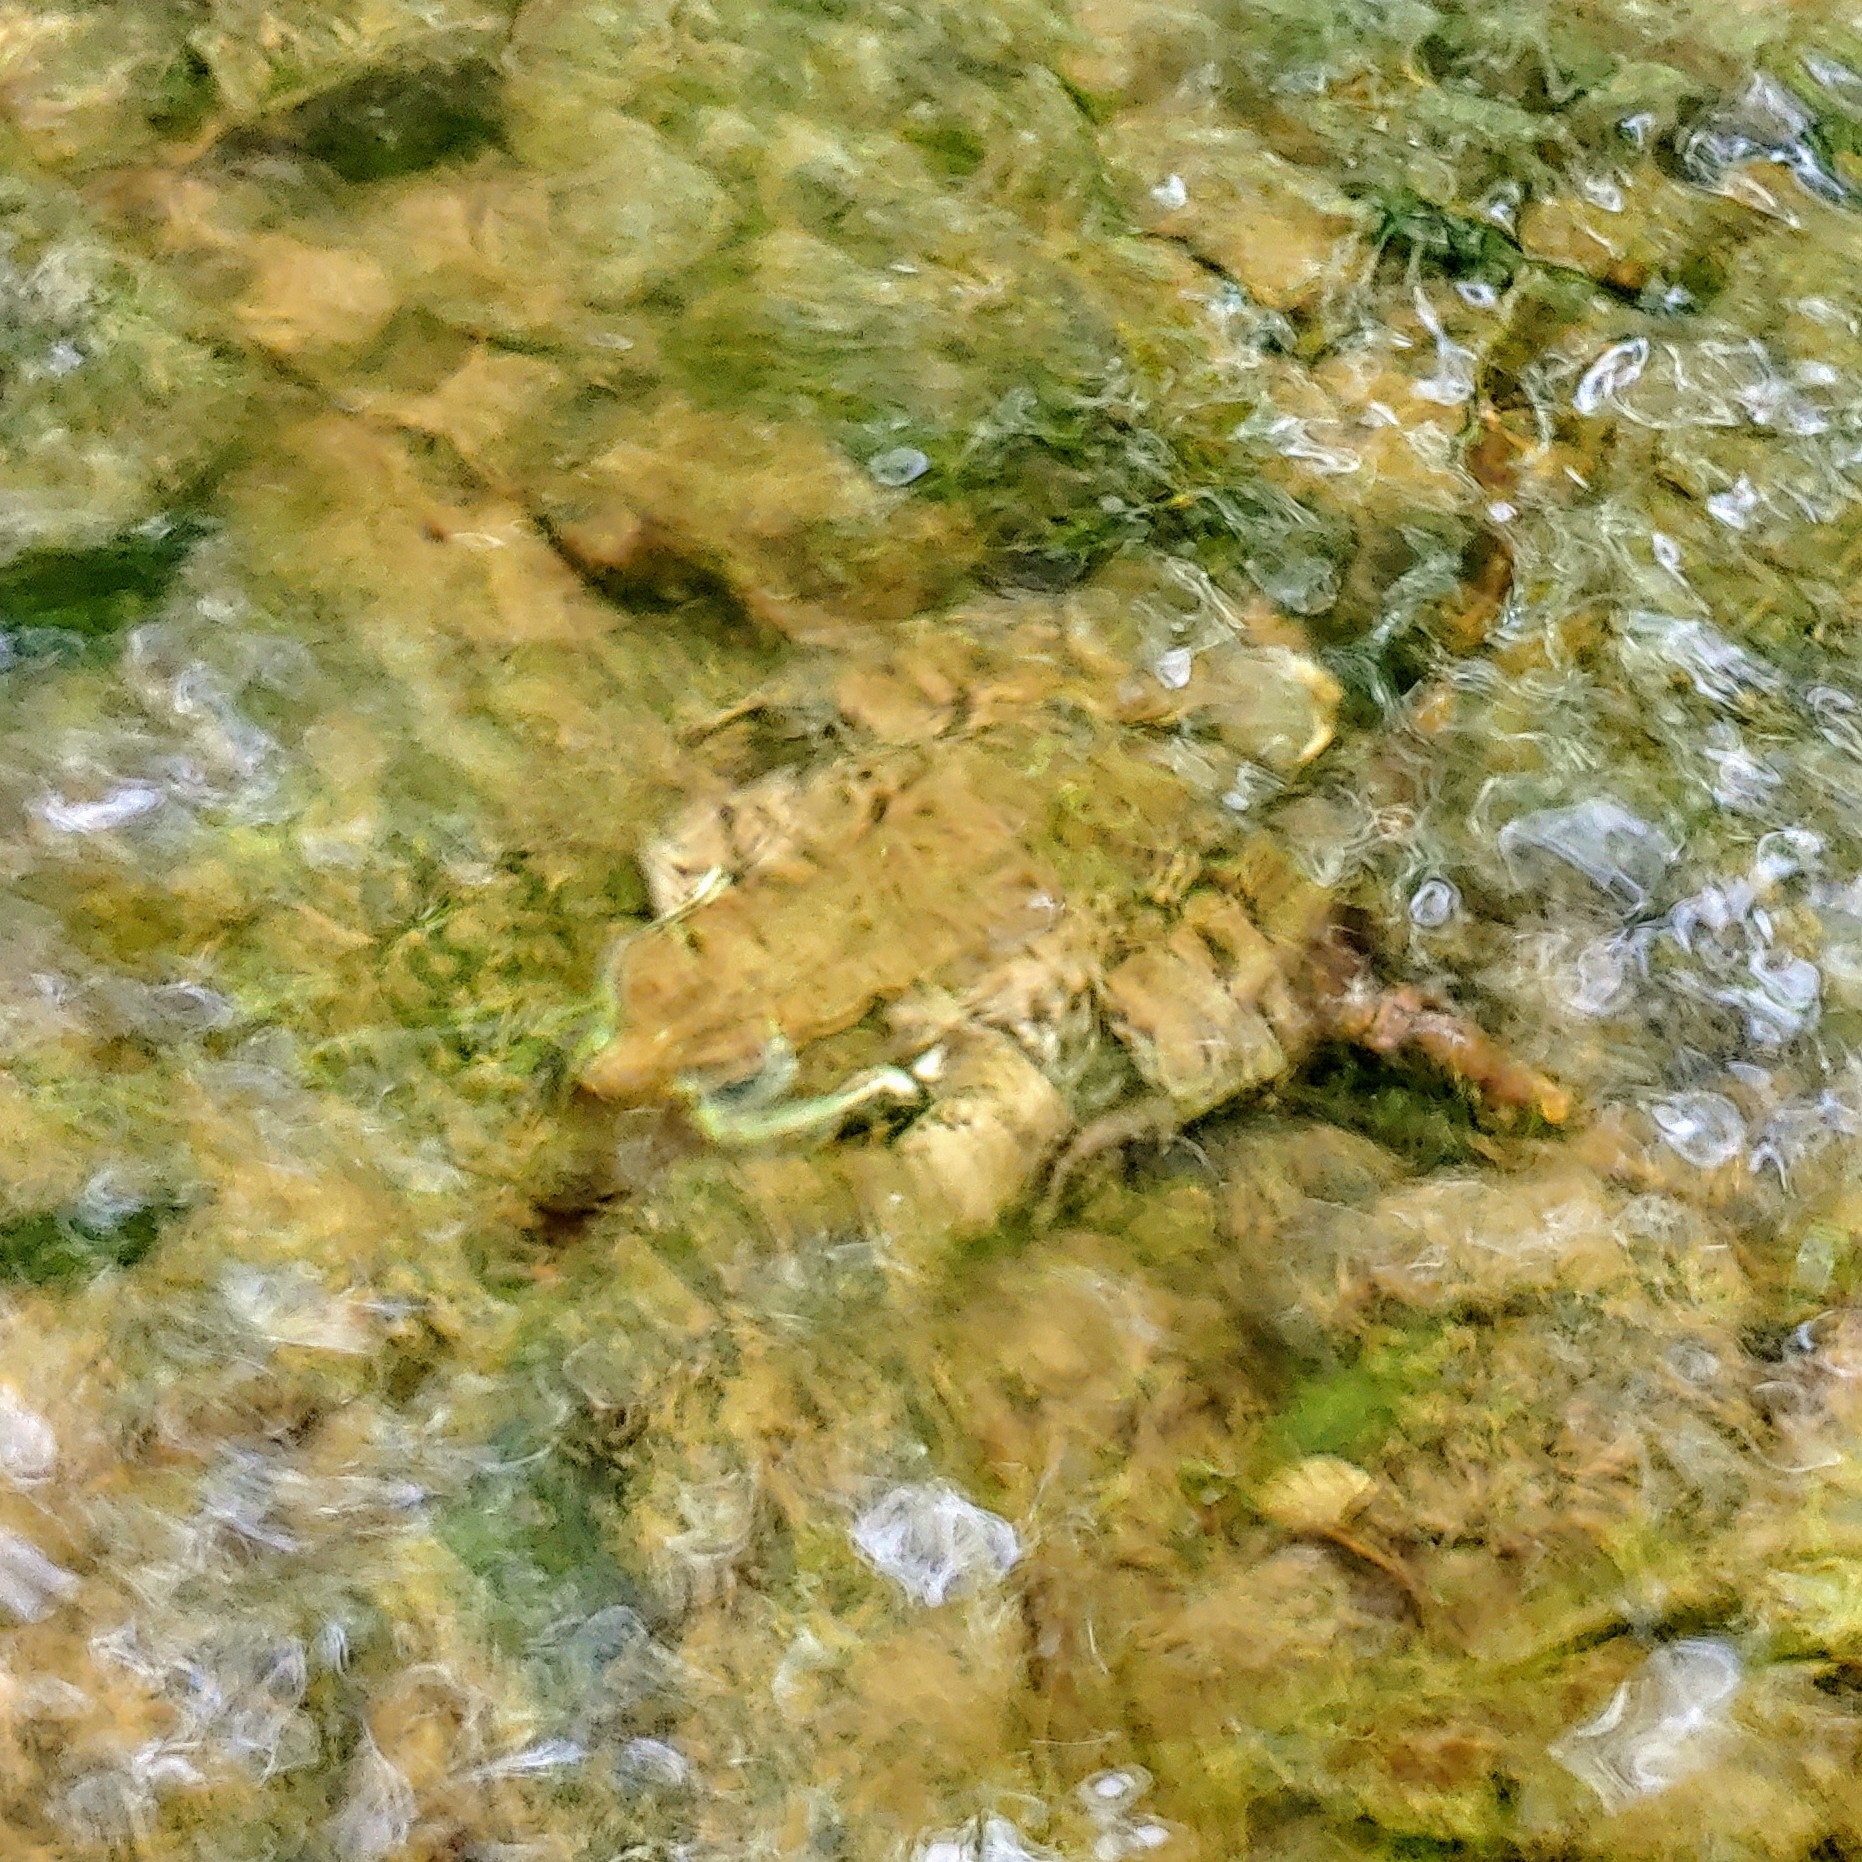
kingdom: Animalia
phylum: Chordata
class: Amphibia
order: Anura
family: Ranidae
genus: Lithobates
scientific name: Lithobates clamitans
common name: Green frog
